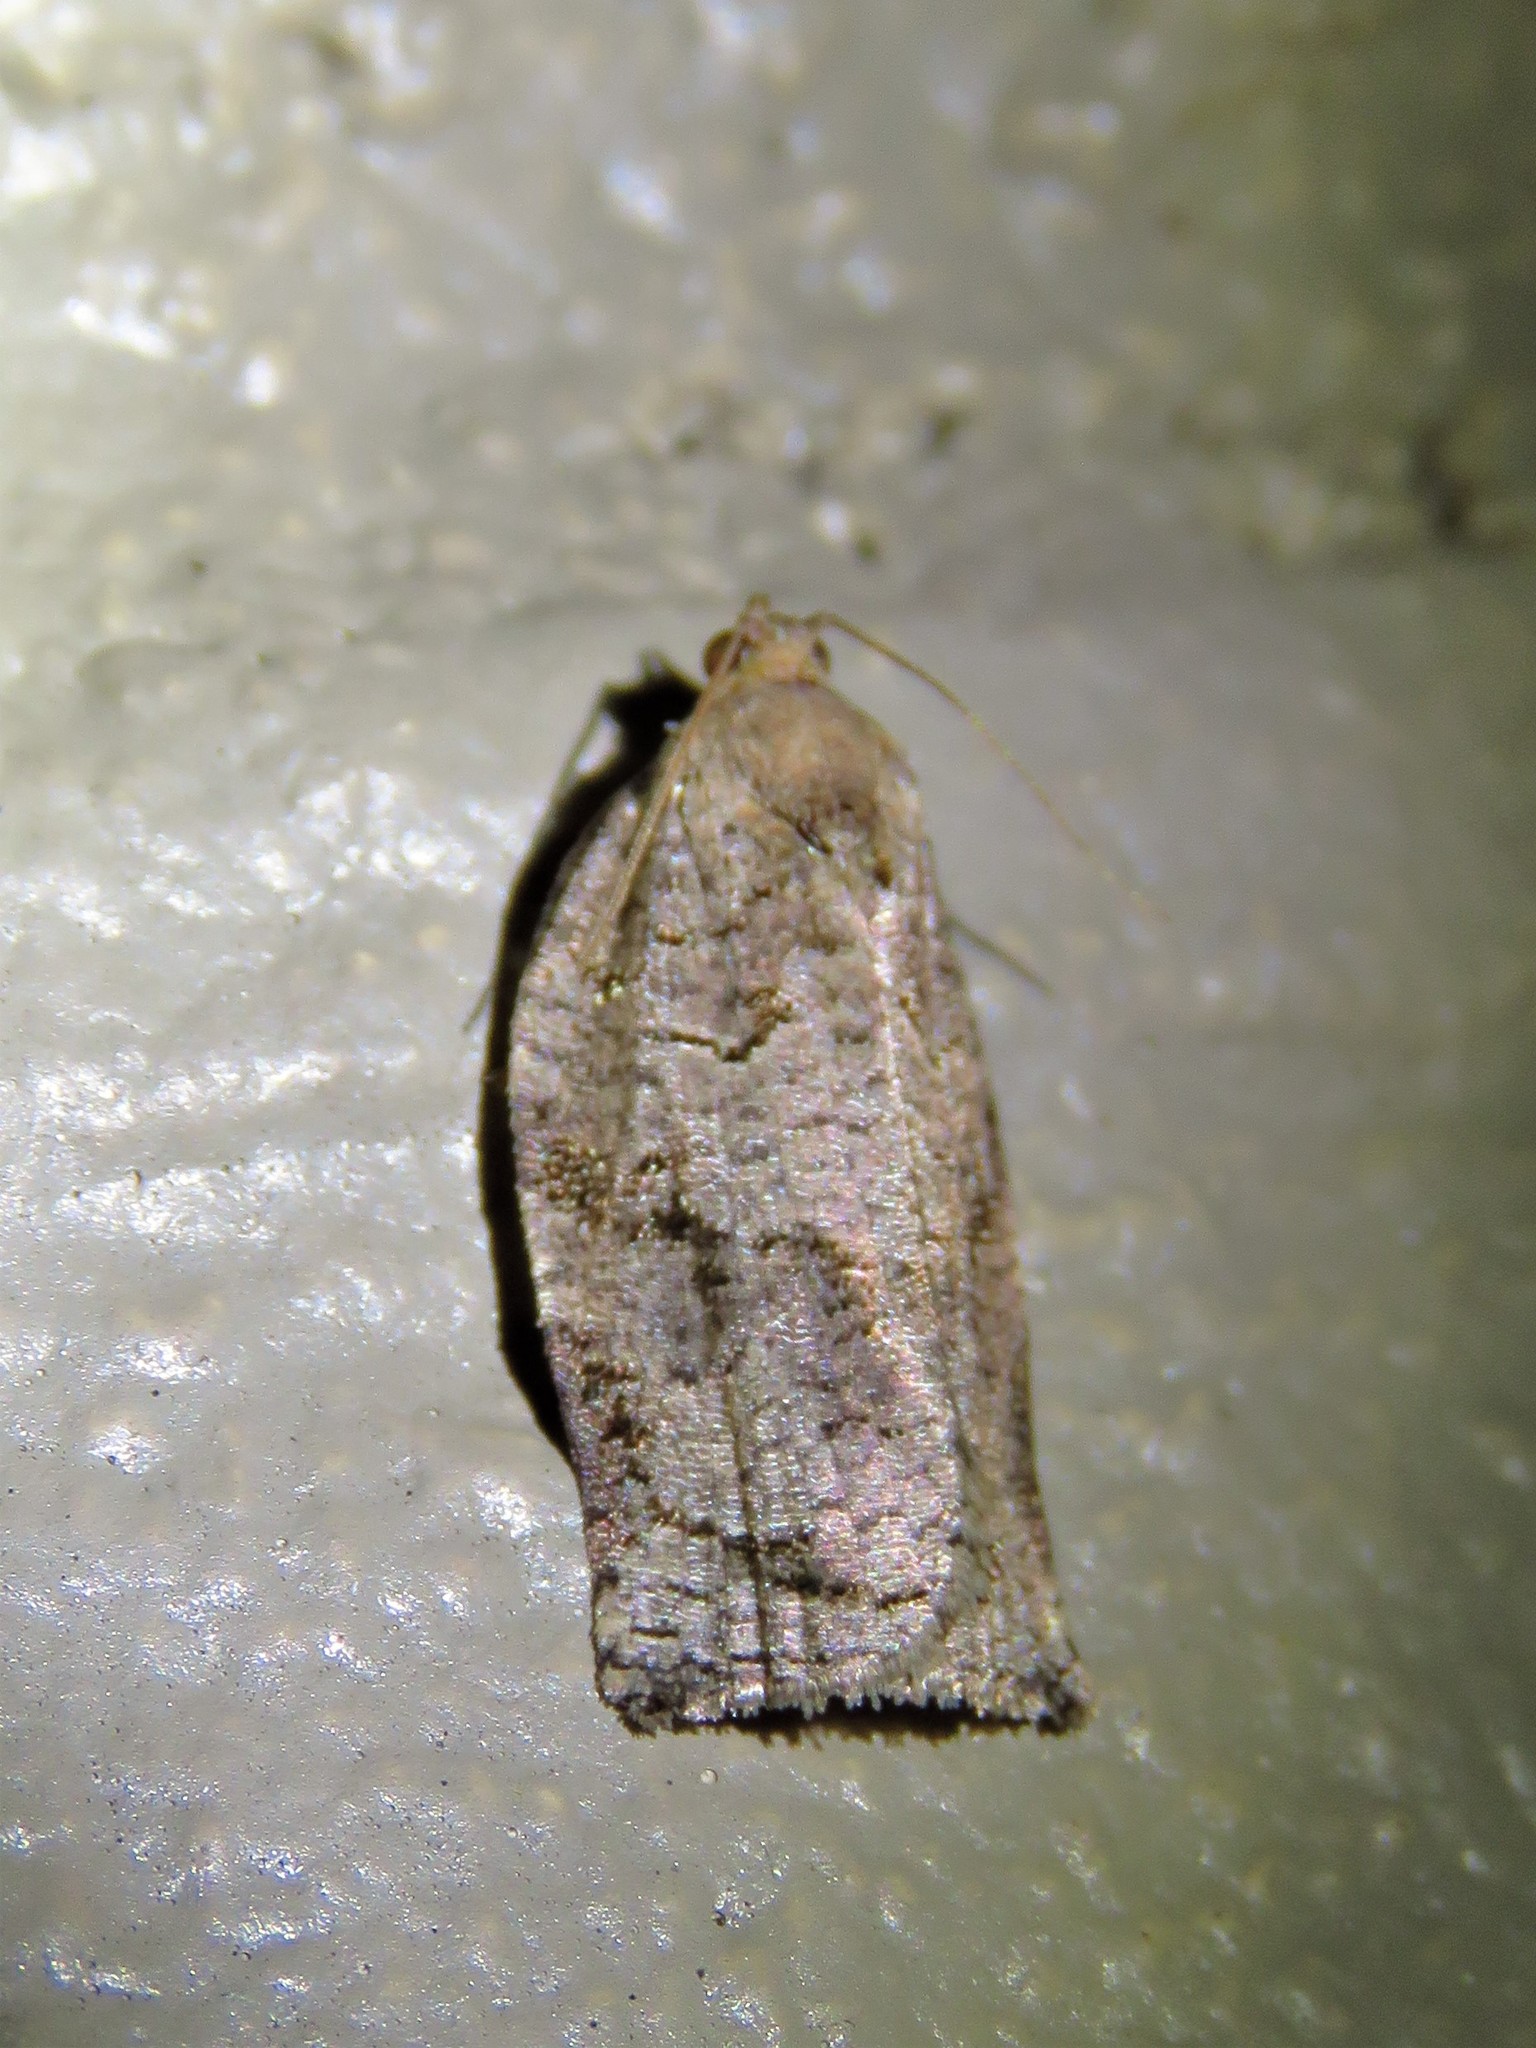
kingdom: Animalia
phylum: Arthropoda
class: Insecta
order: Lepidoptera
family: Tortricidae
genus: Archips
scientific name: Archips grisea
